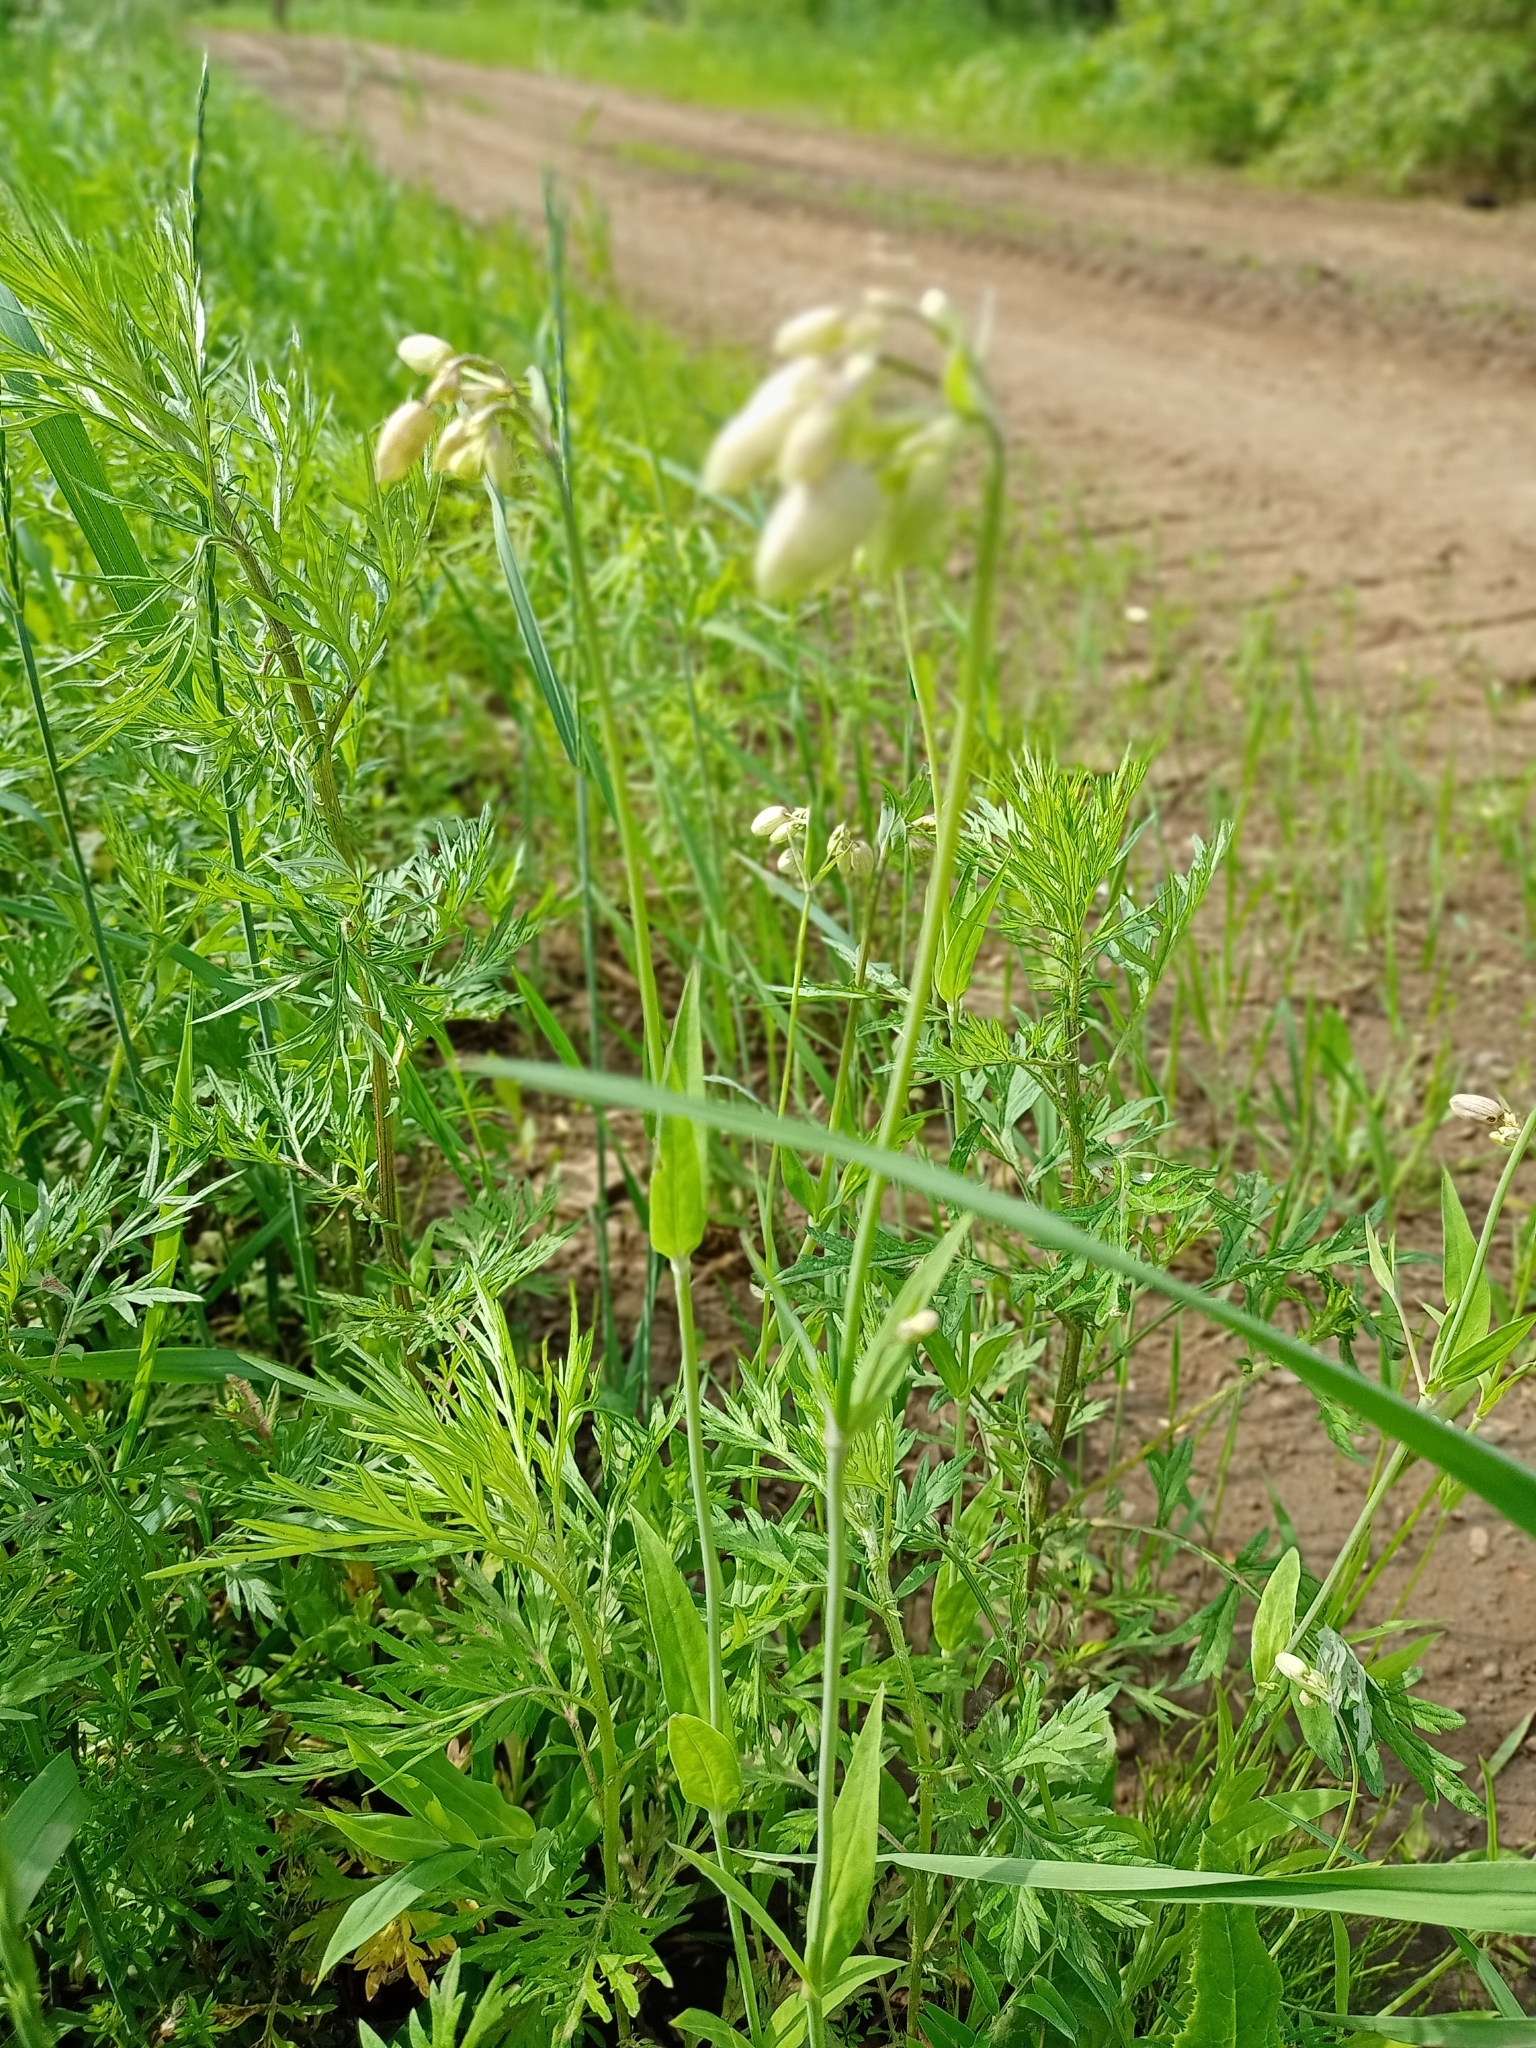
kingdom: Plantae
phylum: Tracheophyta
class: Magnoliopsida
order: Caryophyllales
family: Caryophyllaceae
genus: Silene
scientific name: Silene vulgaris
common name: Bladder campion
